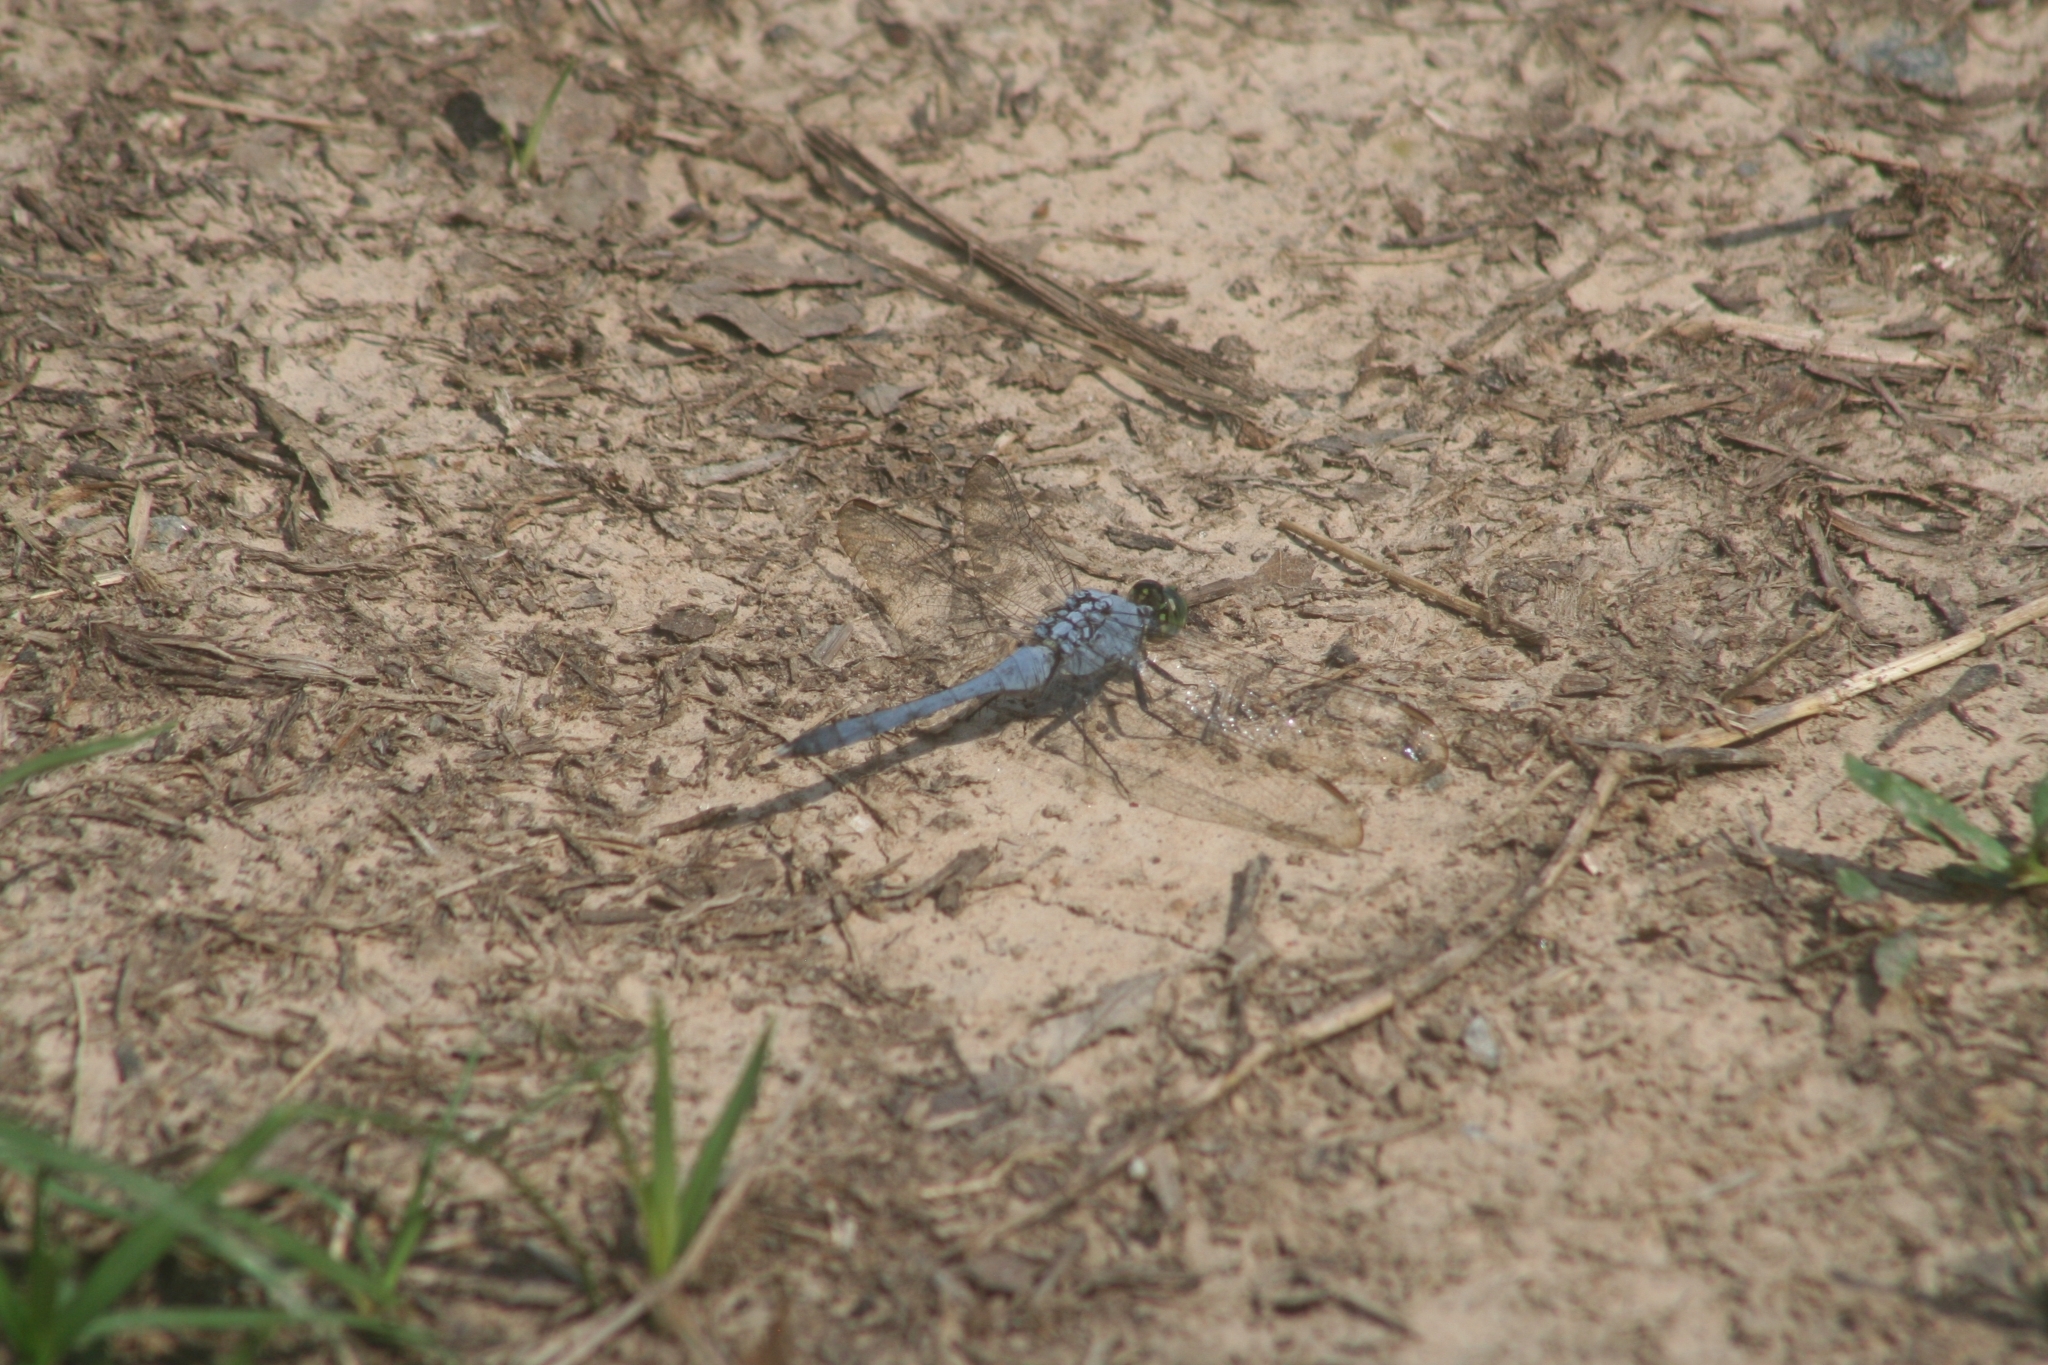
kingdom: Animalia
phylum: Arthropoda
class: Insecta
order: Odonata
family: Libellulidae
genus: Erythemis
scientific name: Erythemis simplicicollis
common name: Eastern pondhawk
